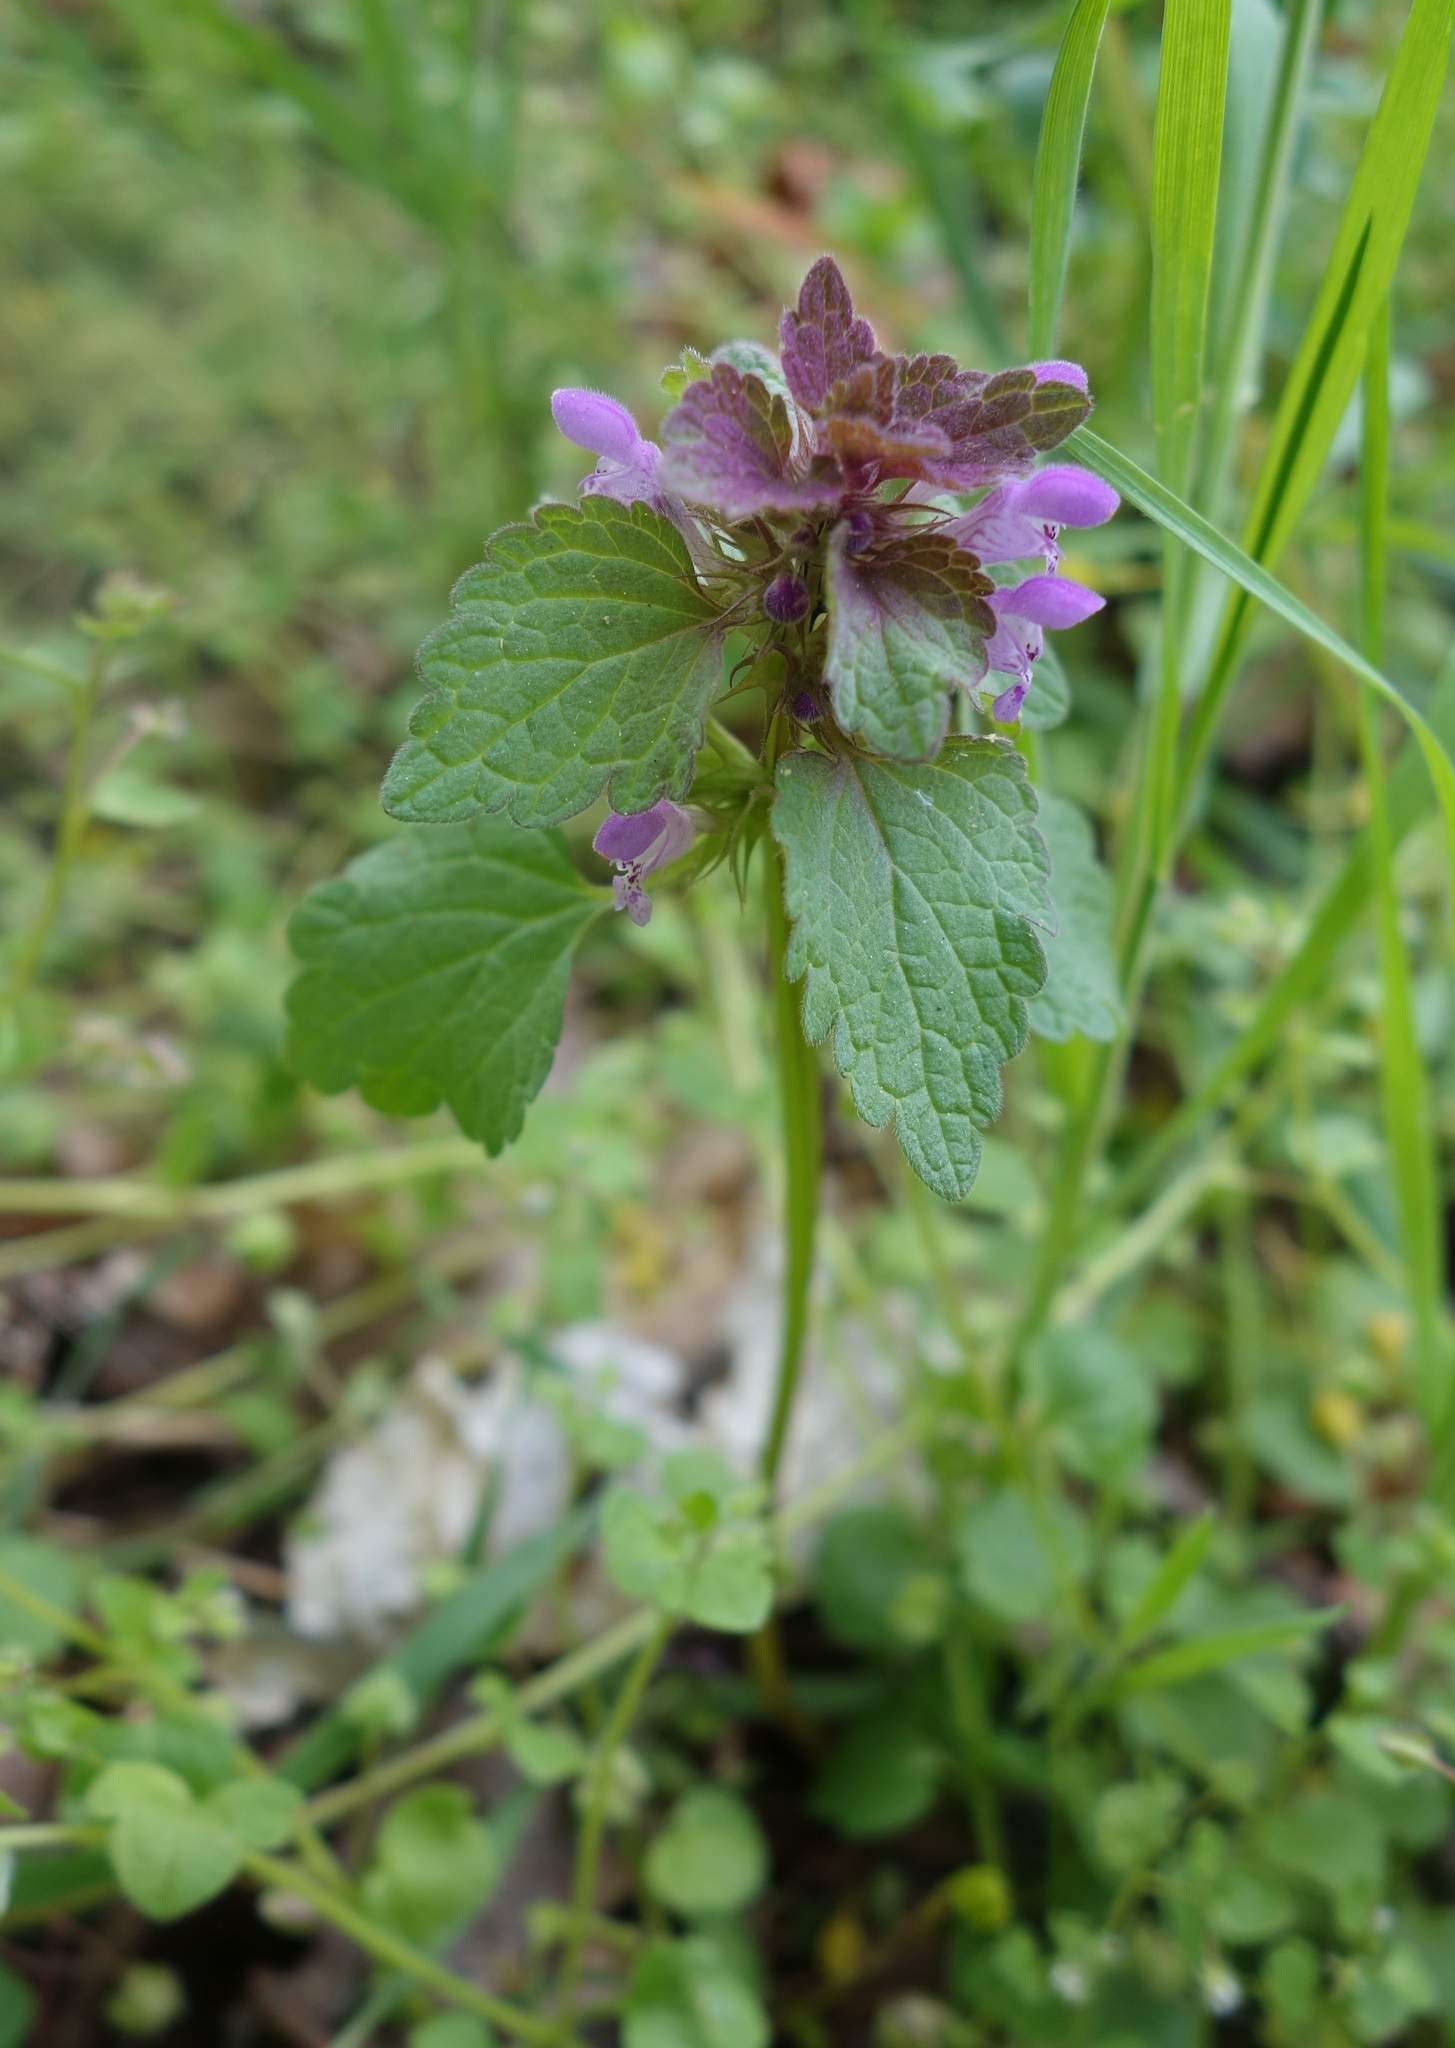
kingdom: Plantae
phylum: Tracheophyta
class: Magnoliopsida
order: Lamiales
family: Lamiaceae
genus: Lamium
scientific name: Lamium purpureum
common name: Red dead-nettle
